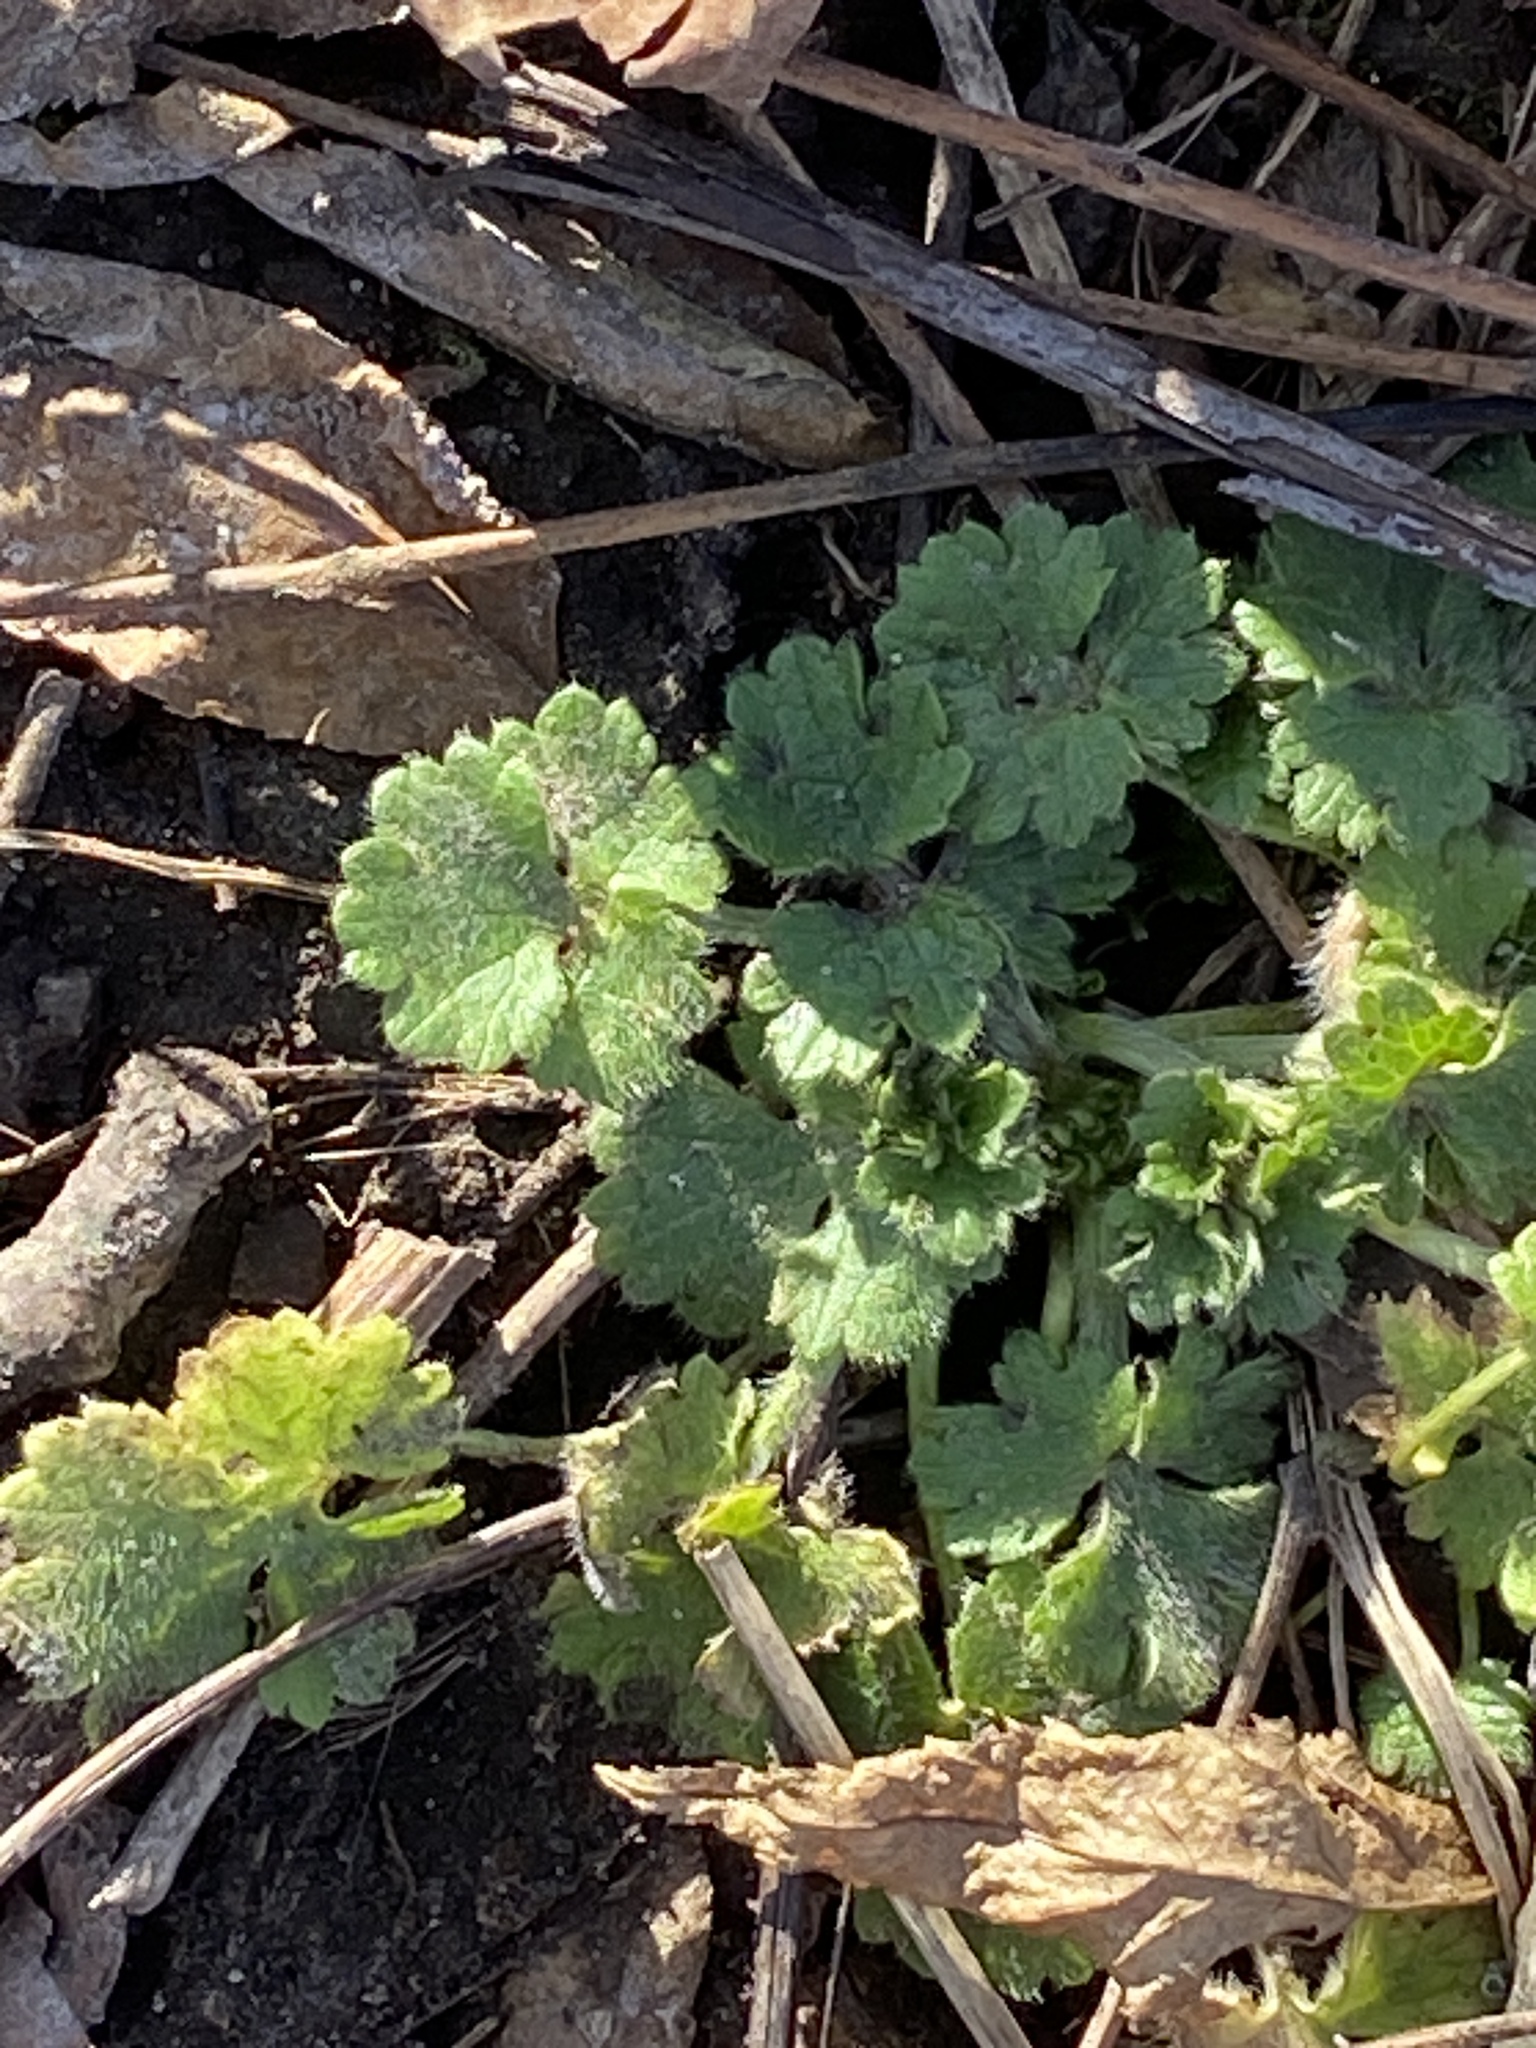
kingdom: Plantae
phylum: Tracheophyta
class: Magnoliopsida
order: Ranunculales
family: Ranunculaceae
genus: Ranunculus
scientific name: Ranunculus bulbosus
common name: Bulbous buttercup
